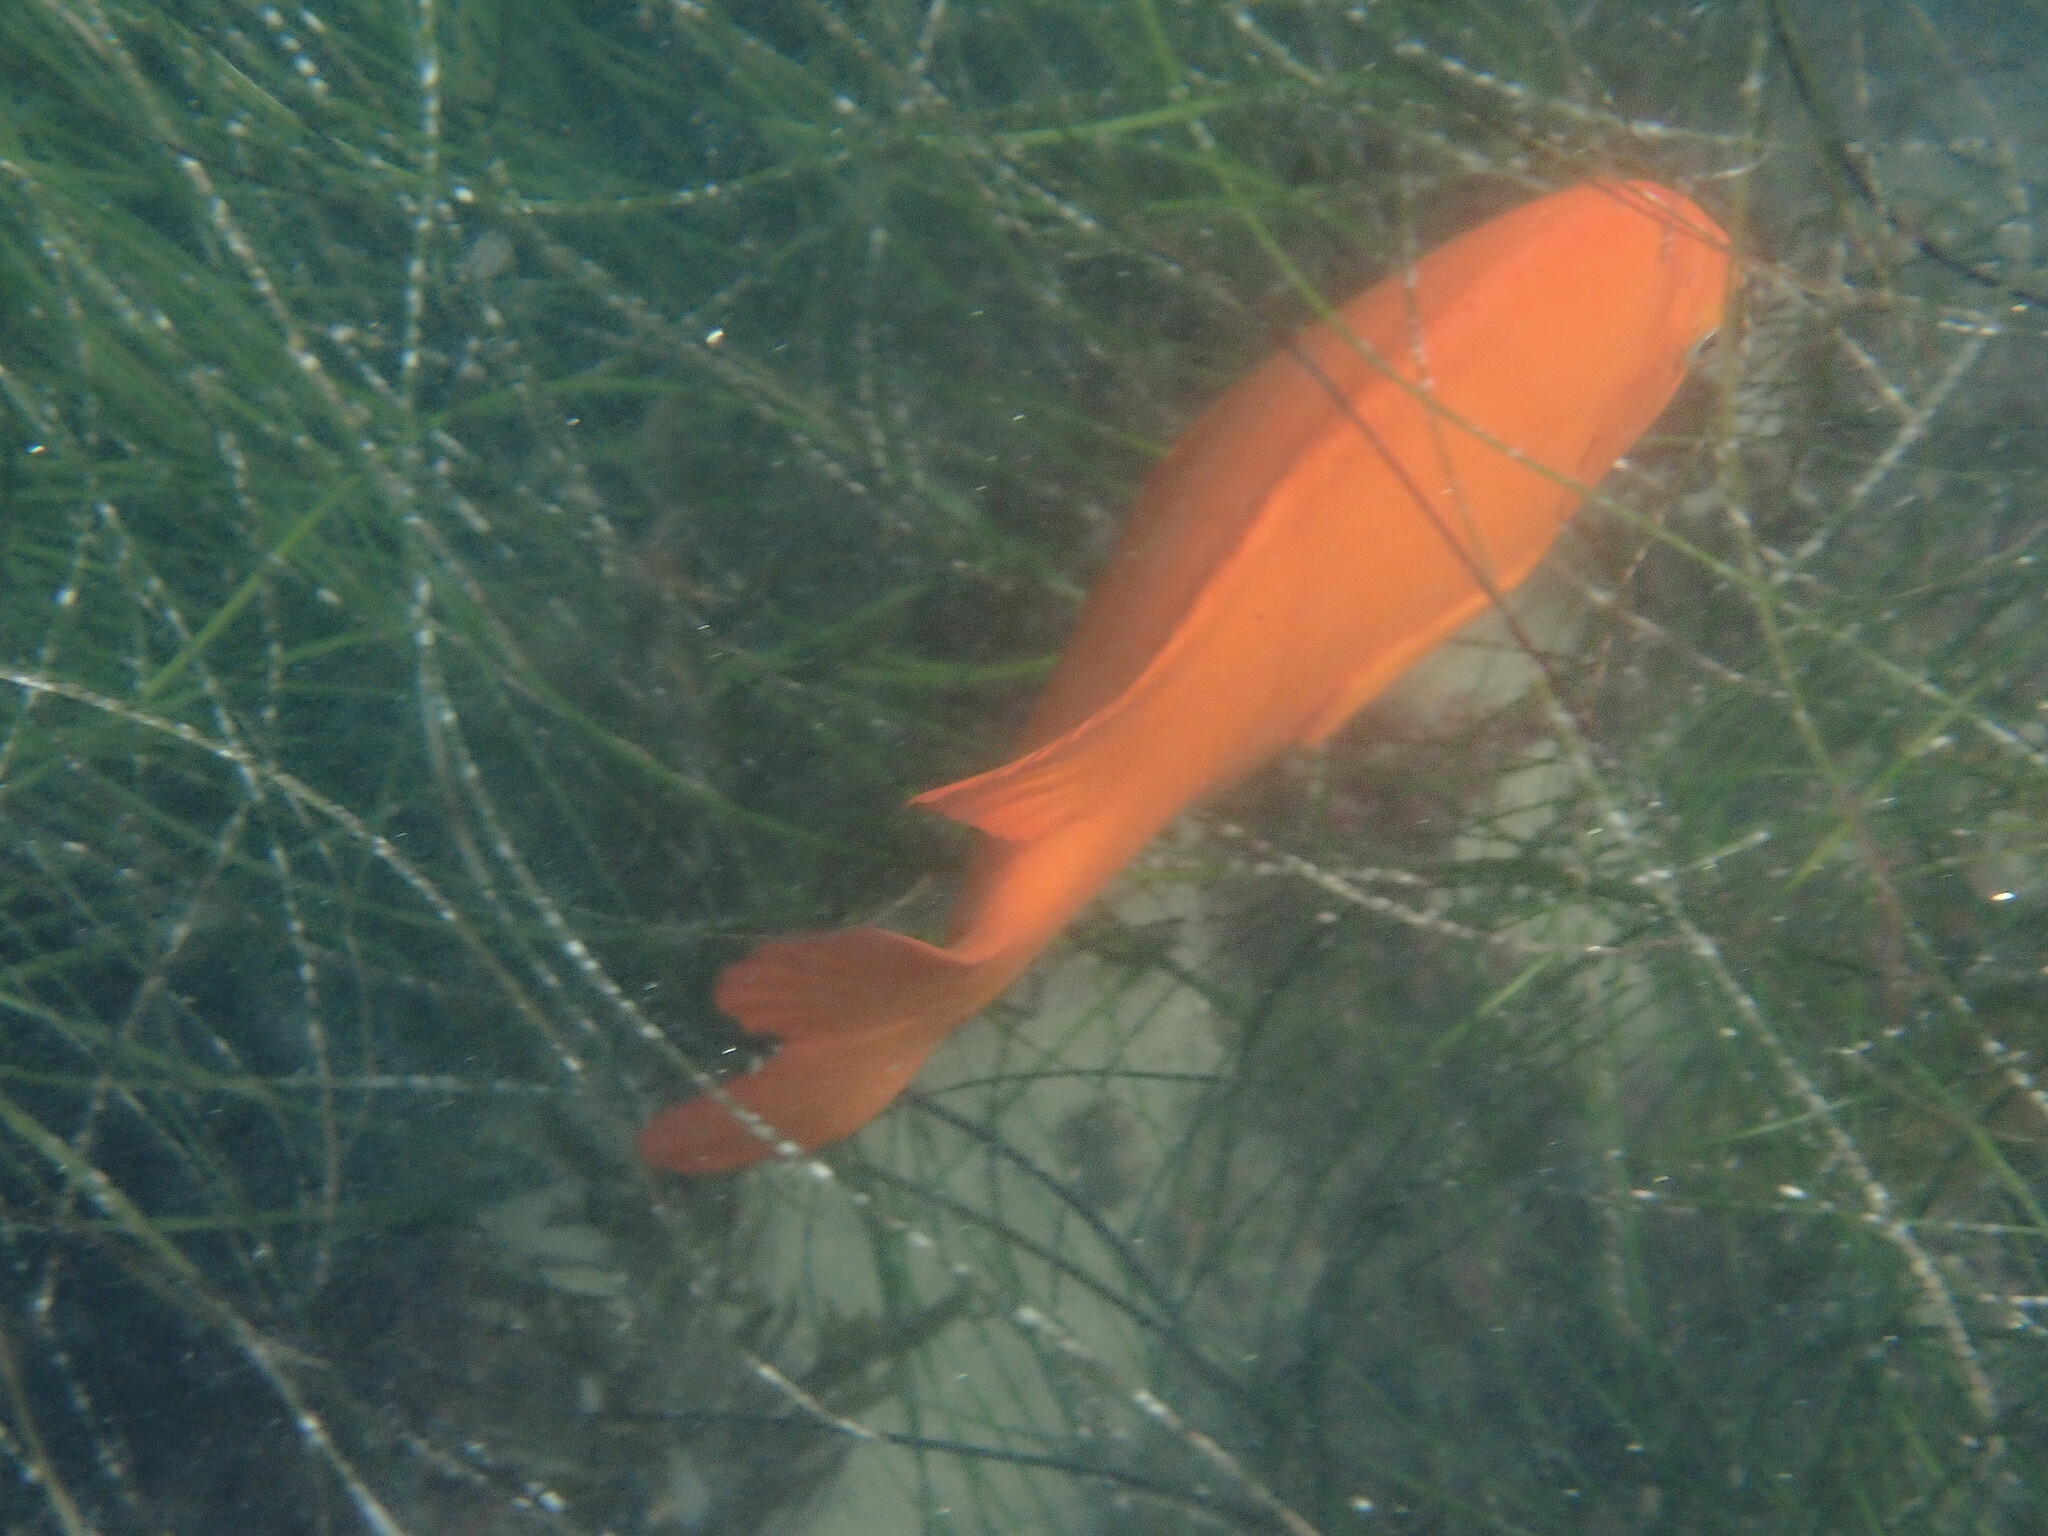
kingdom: Animalia
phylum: Chordata
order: Perciformes
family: Pomacentridae
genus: Hypsypops
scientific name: Hypsypops rubicundus
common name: Garibaldi
